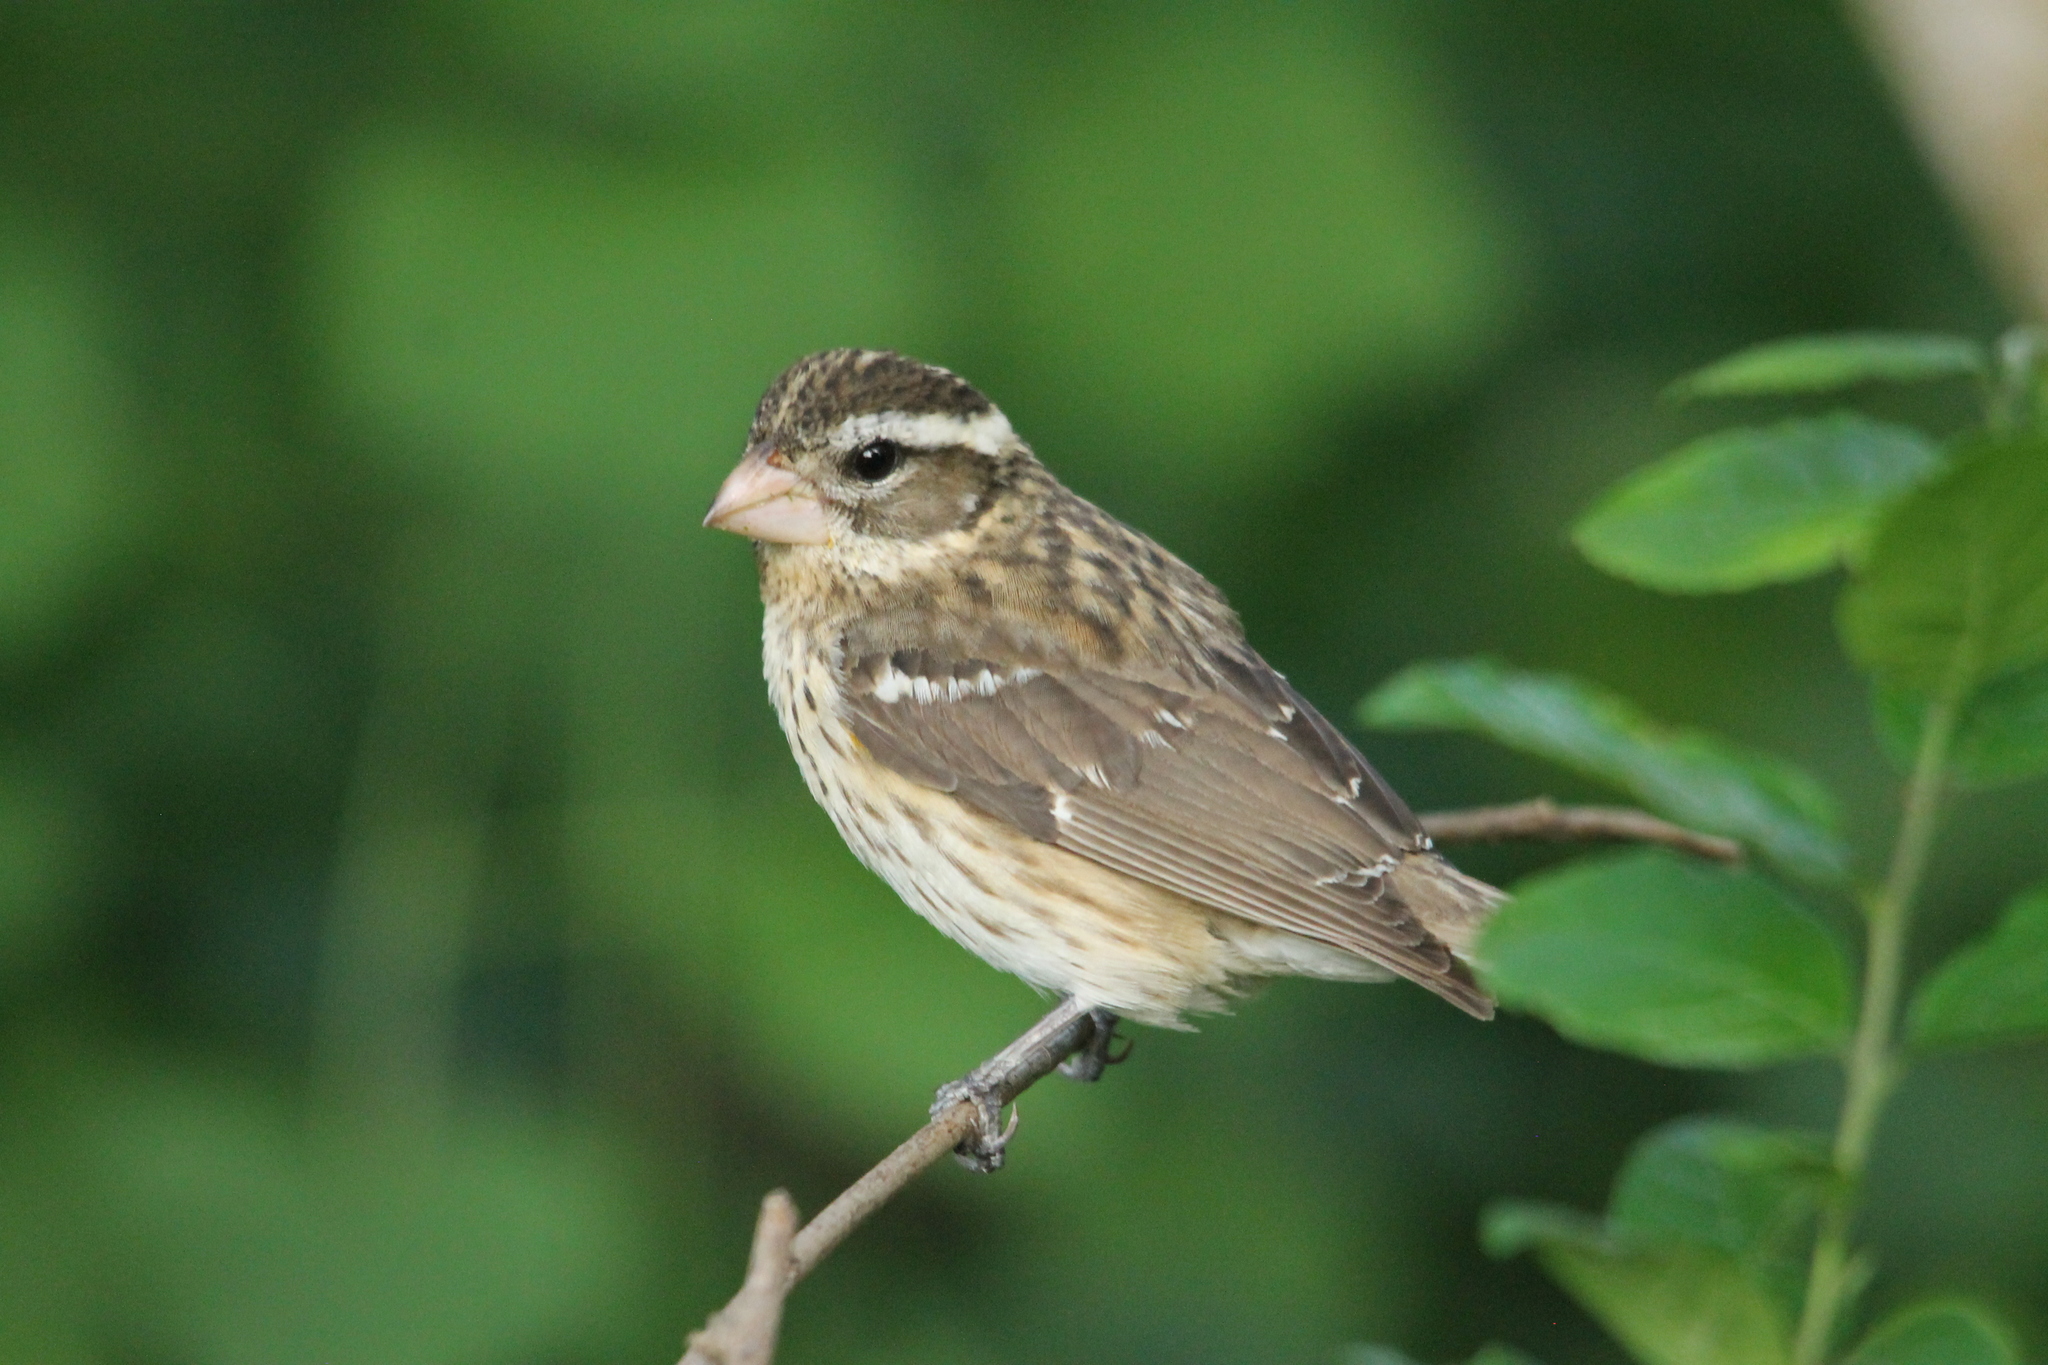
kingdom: Animalia
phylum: Chordata
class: Aves
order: Passeriformes
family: Cardinalidae
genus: Pheucticus
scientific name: Pheucticus ludovicianus
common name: Rose-breasted grosbeak
